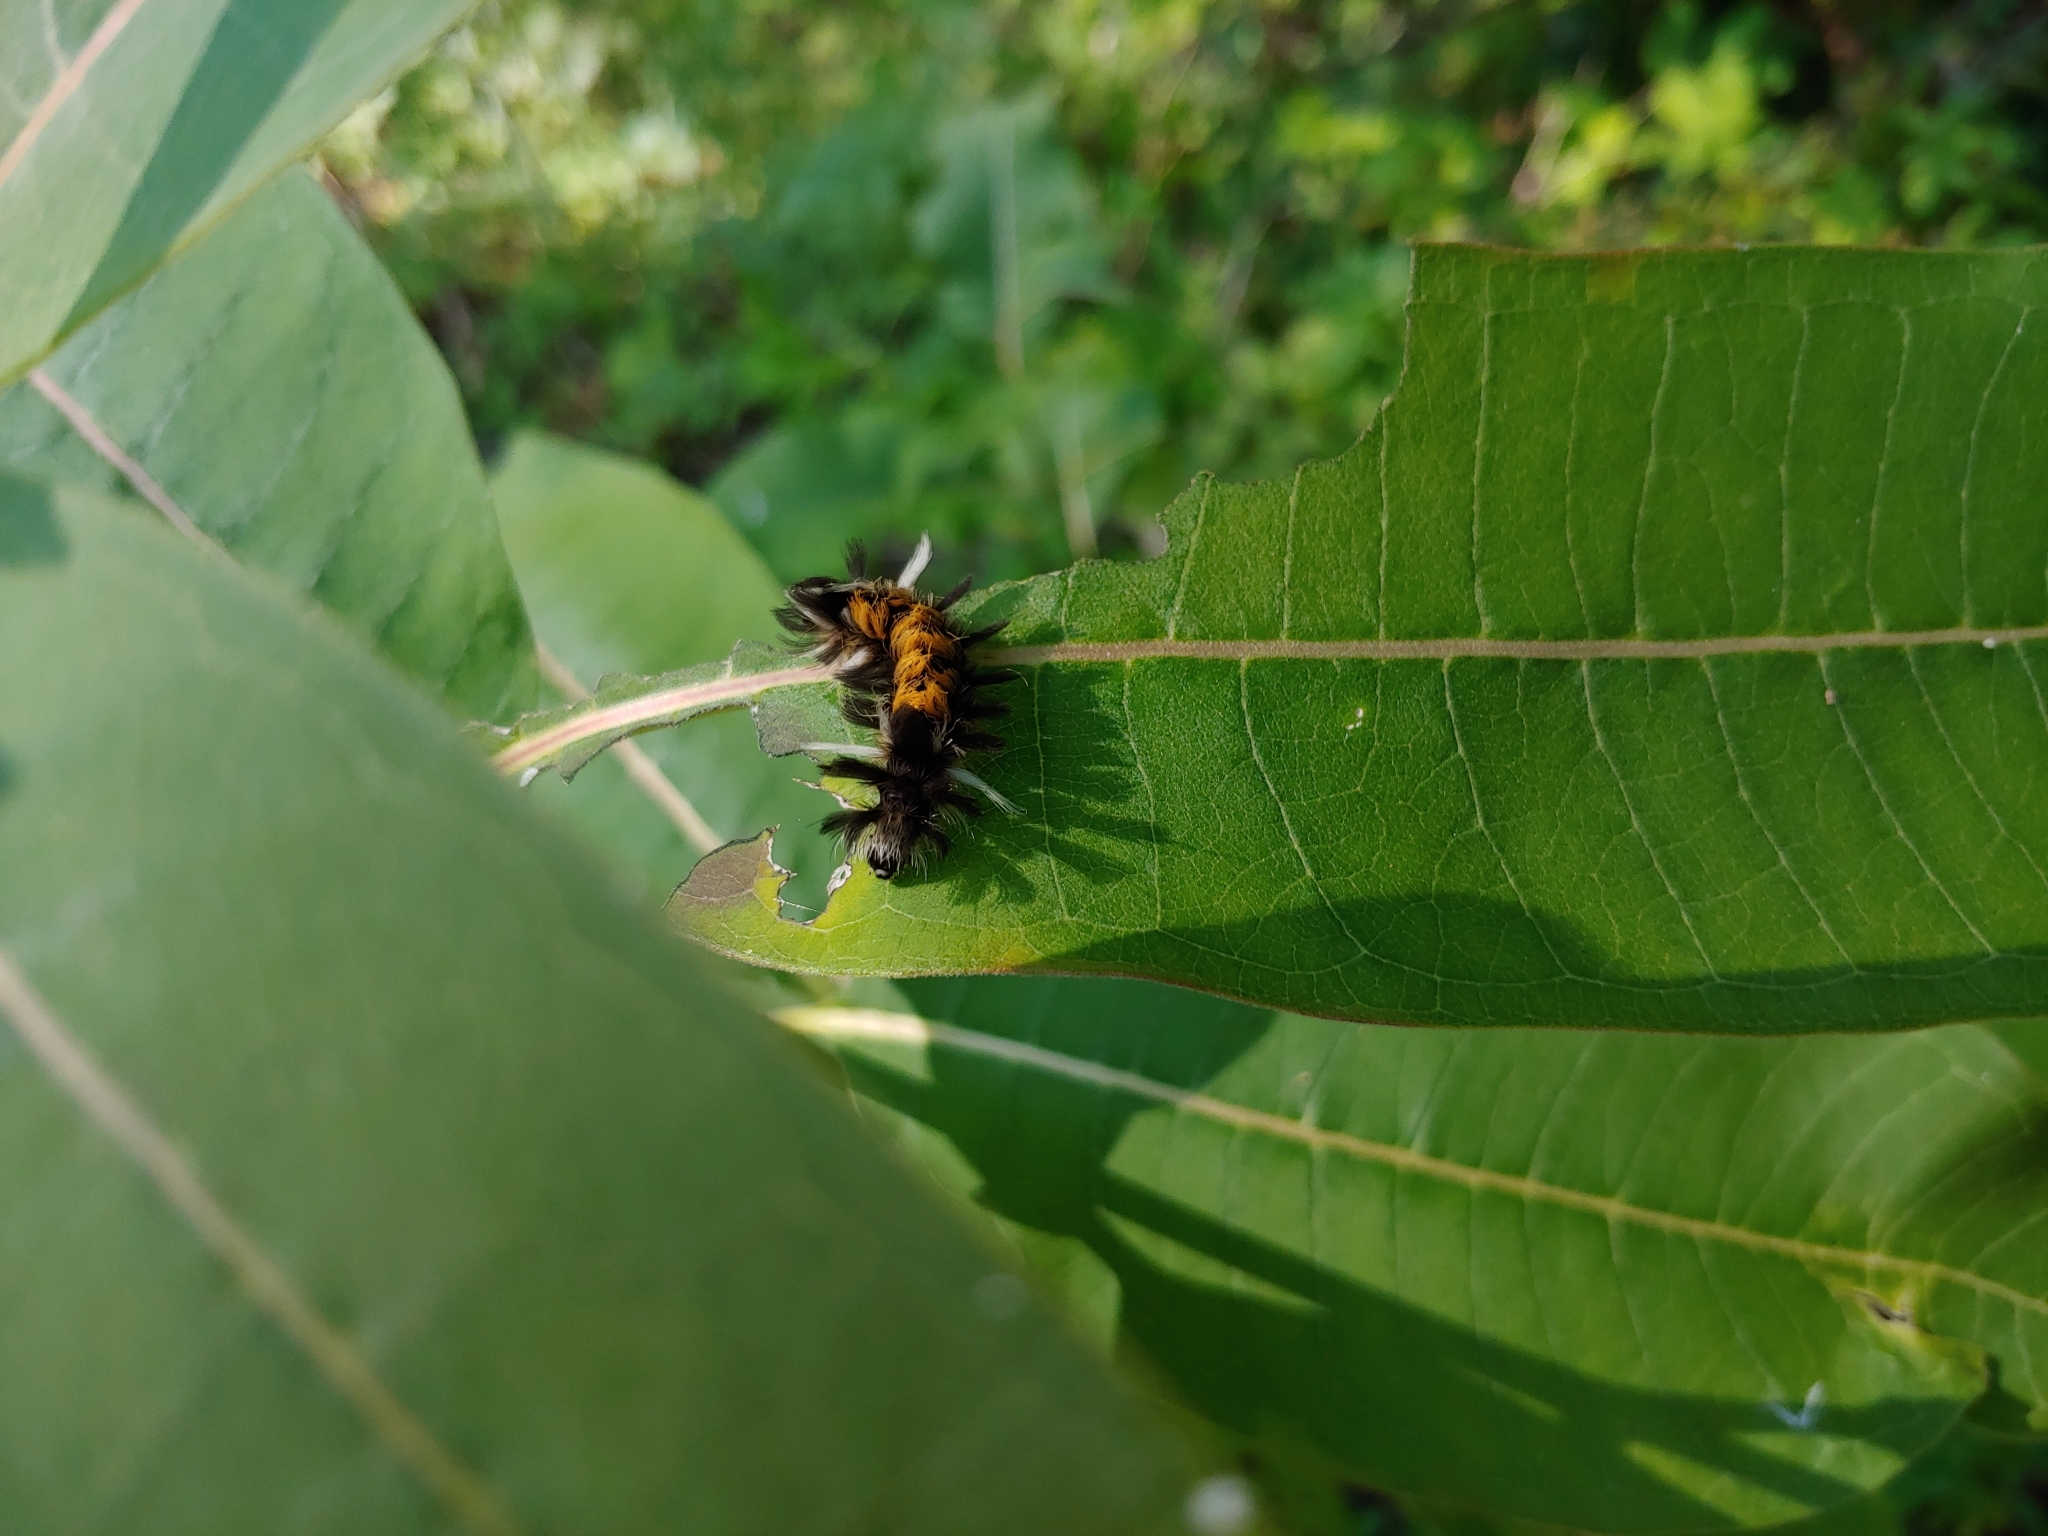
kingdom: Animalia
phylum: Arthropoda
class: Insecta
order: Lepidoptera
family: Erebidae
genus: Euchaetes
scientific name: Euchaetes egle
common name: Milkweed tussock moth
